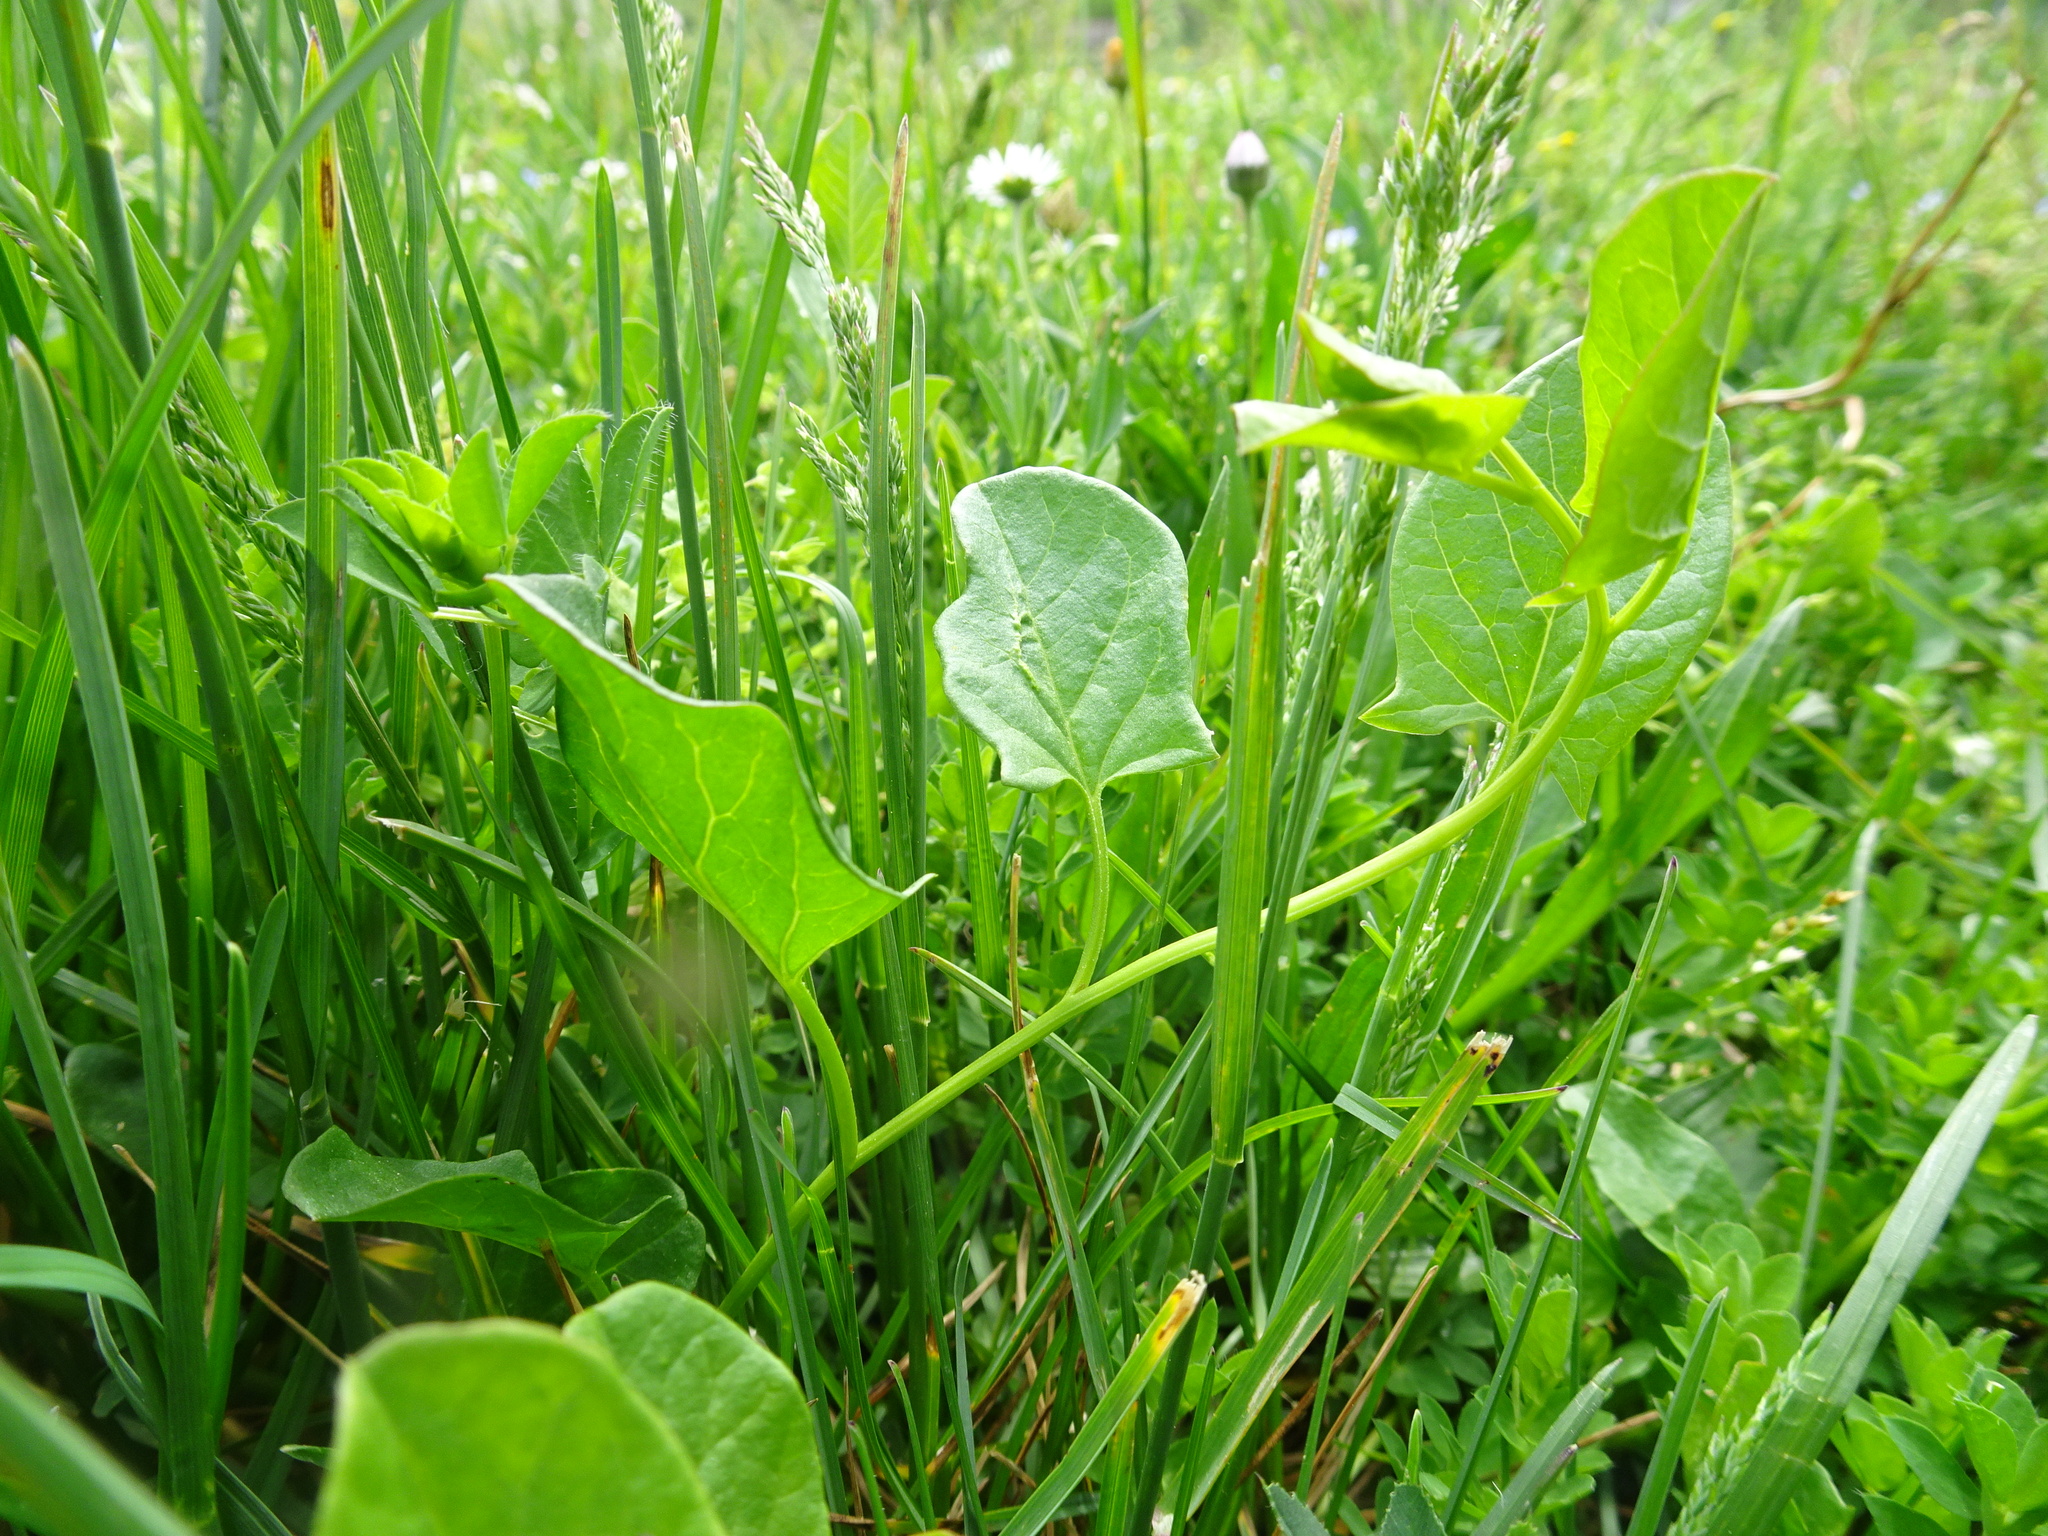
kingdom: Plantae
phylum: Tracheophyta
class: Magnoliopsida
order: Solanales
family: Convolvulaceae
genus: Convolvulus
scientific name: Convolvulus arvensis
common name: Field bindweed
